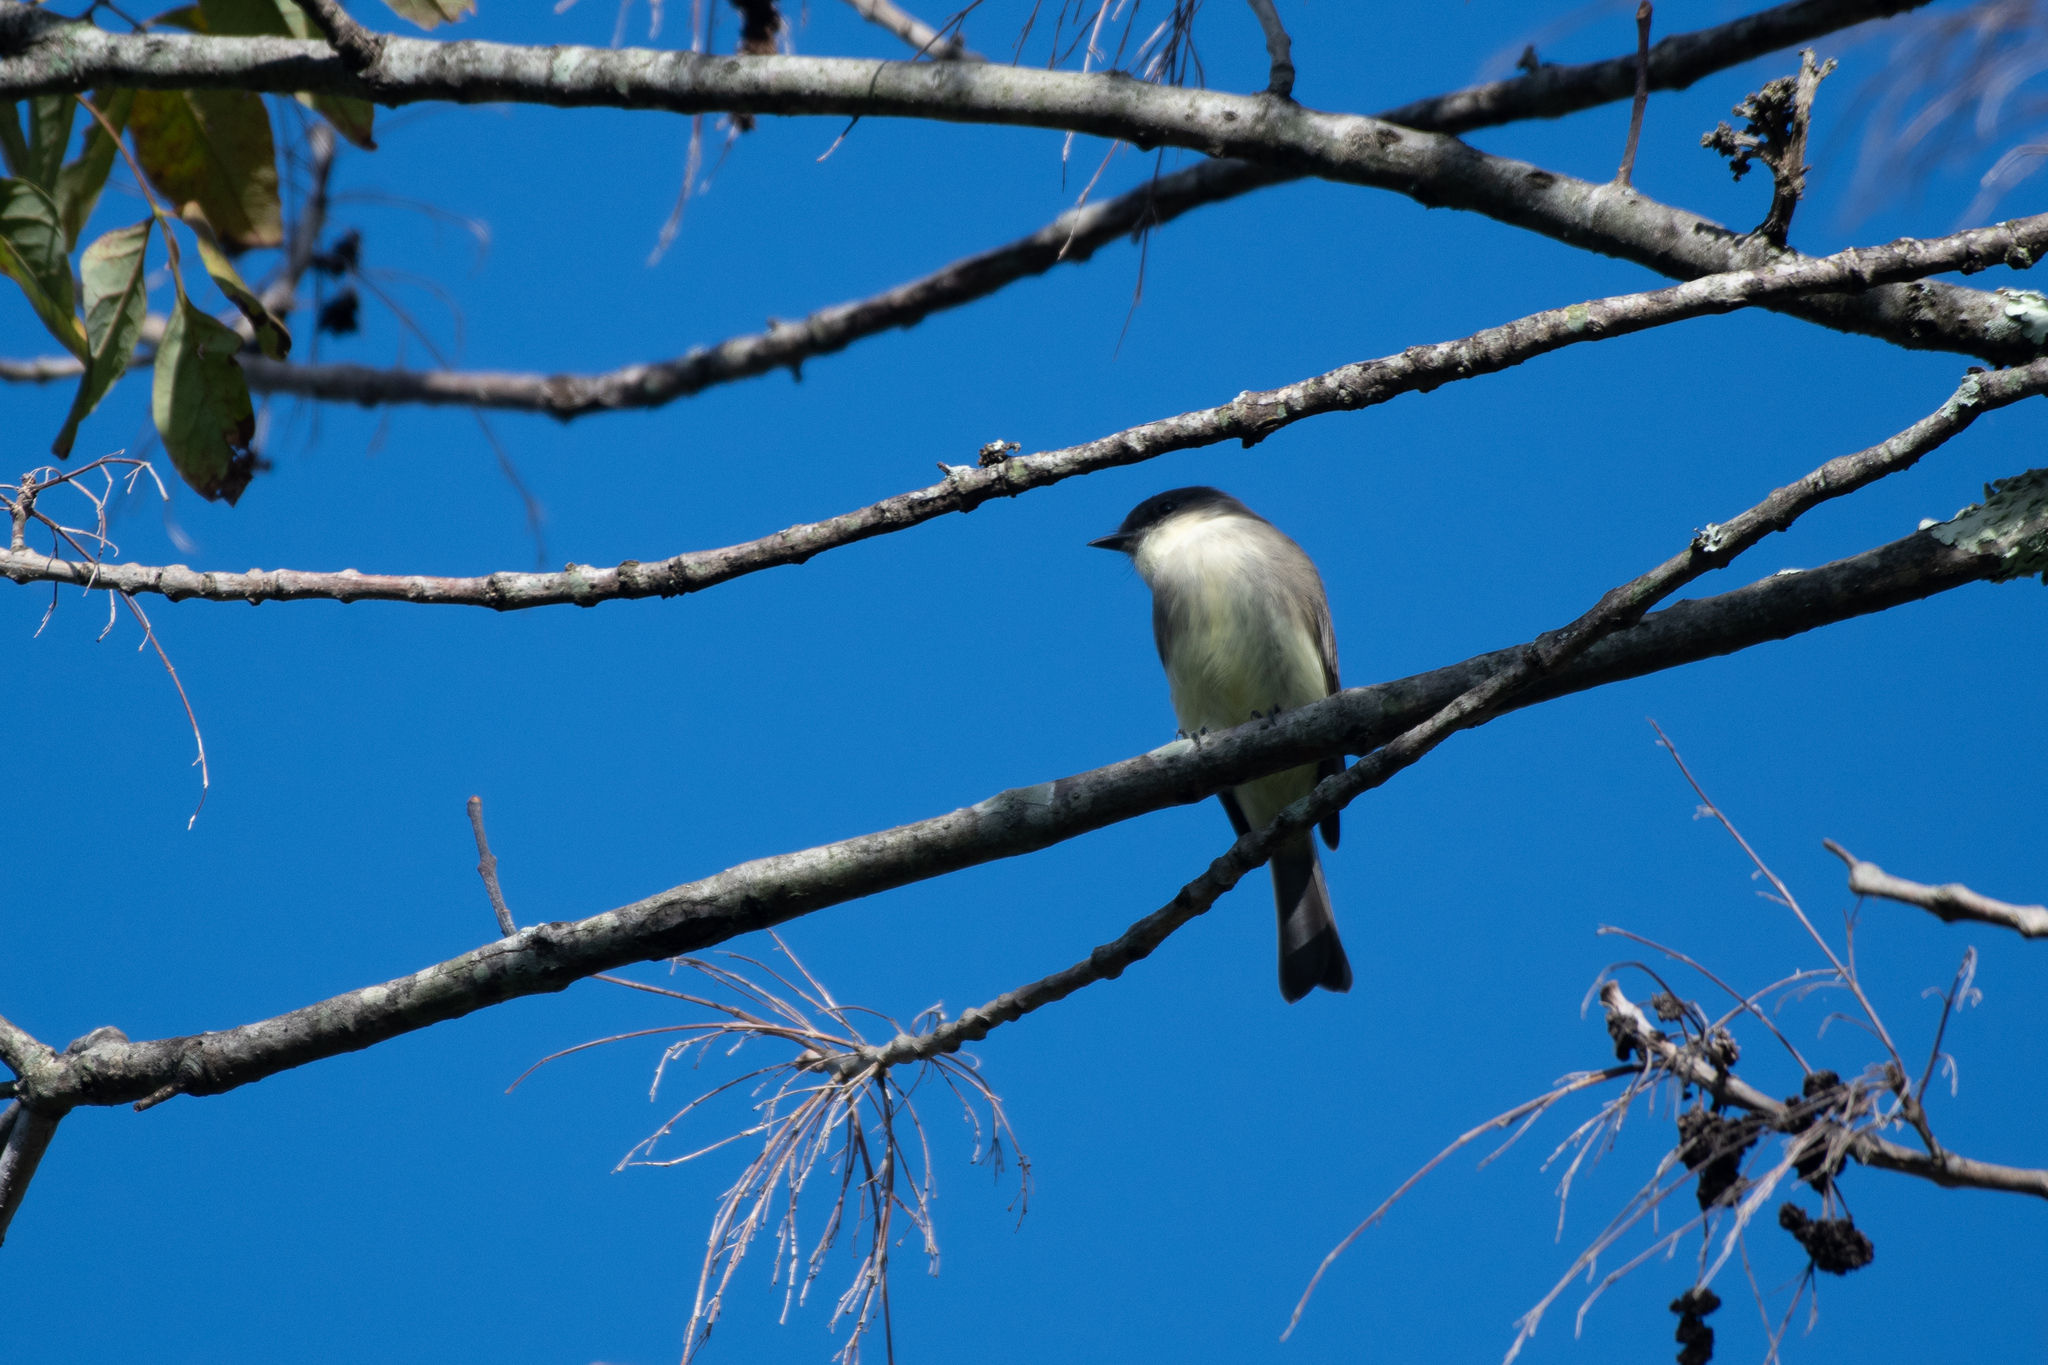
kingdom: Animalia
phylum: Chordata
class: Aves
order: Passeriformes
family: Tyrannidae
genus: Sayornis
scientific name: Sayornis phoebe
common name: Eastern phoebe
